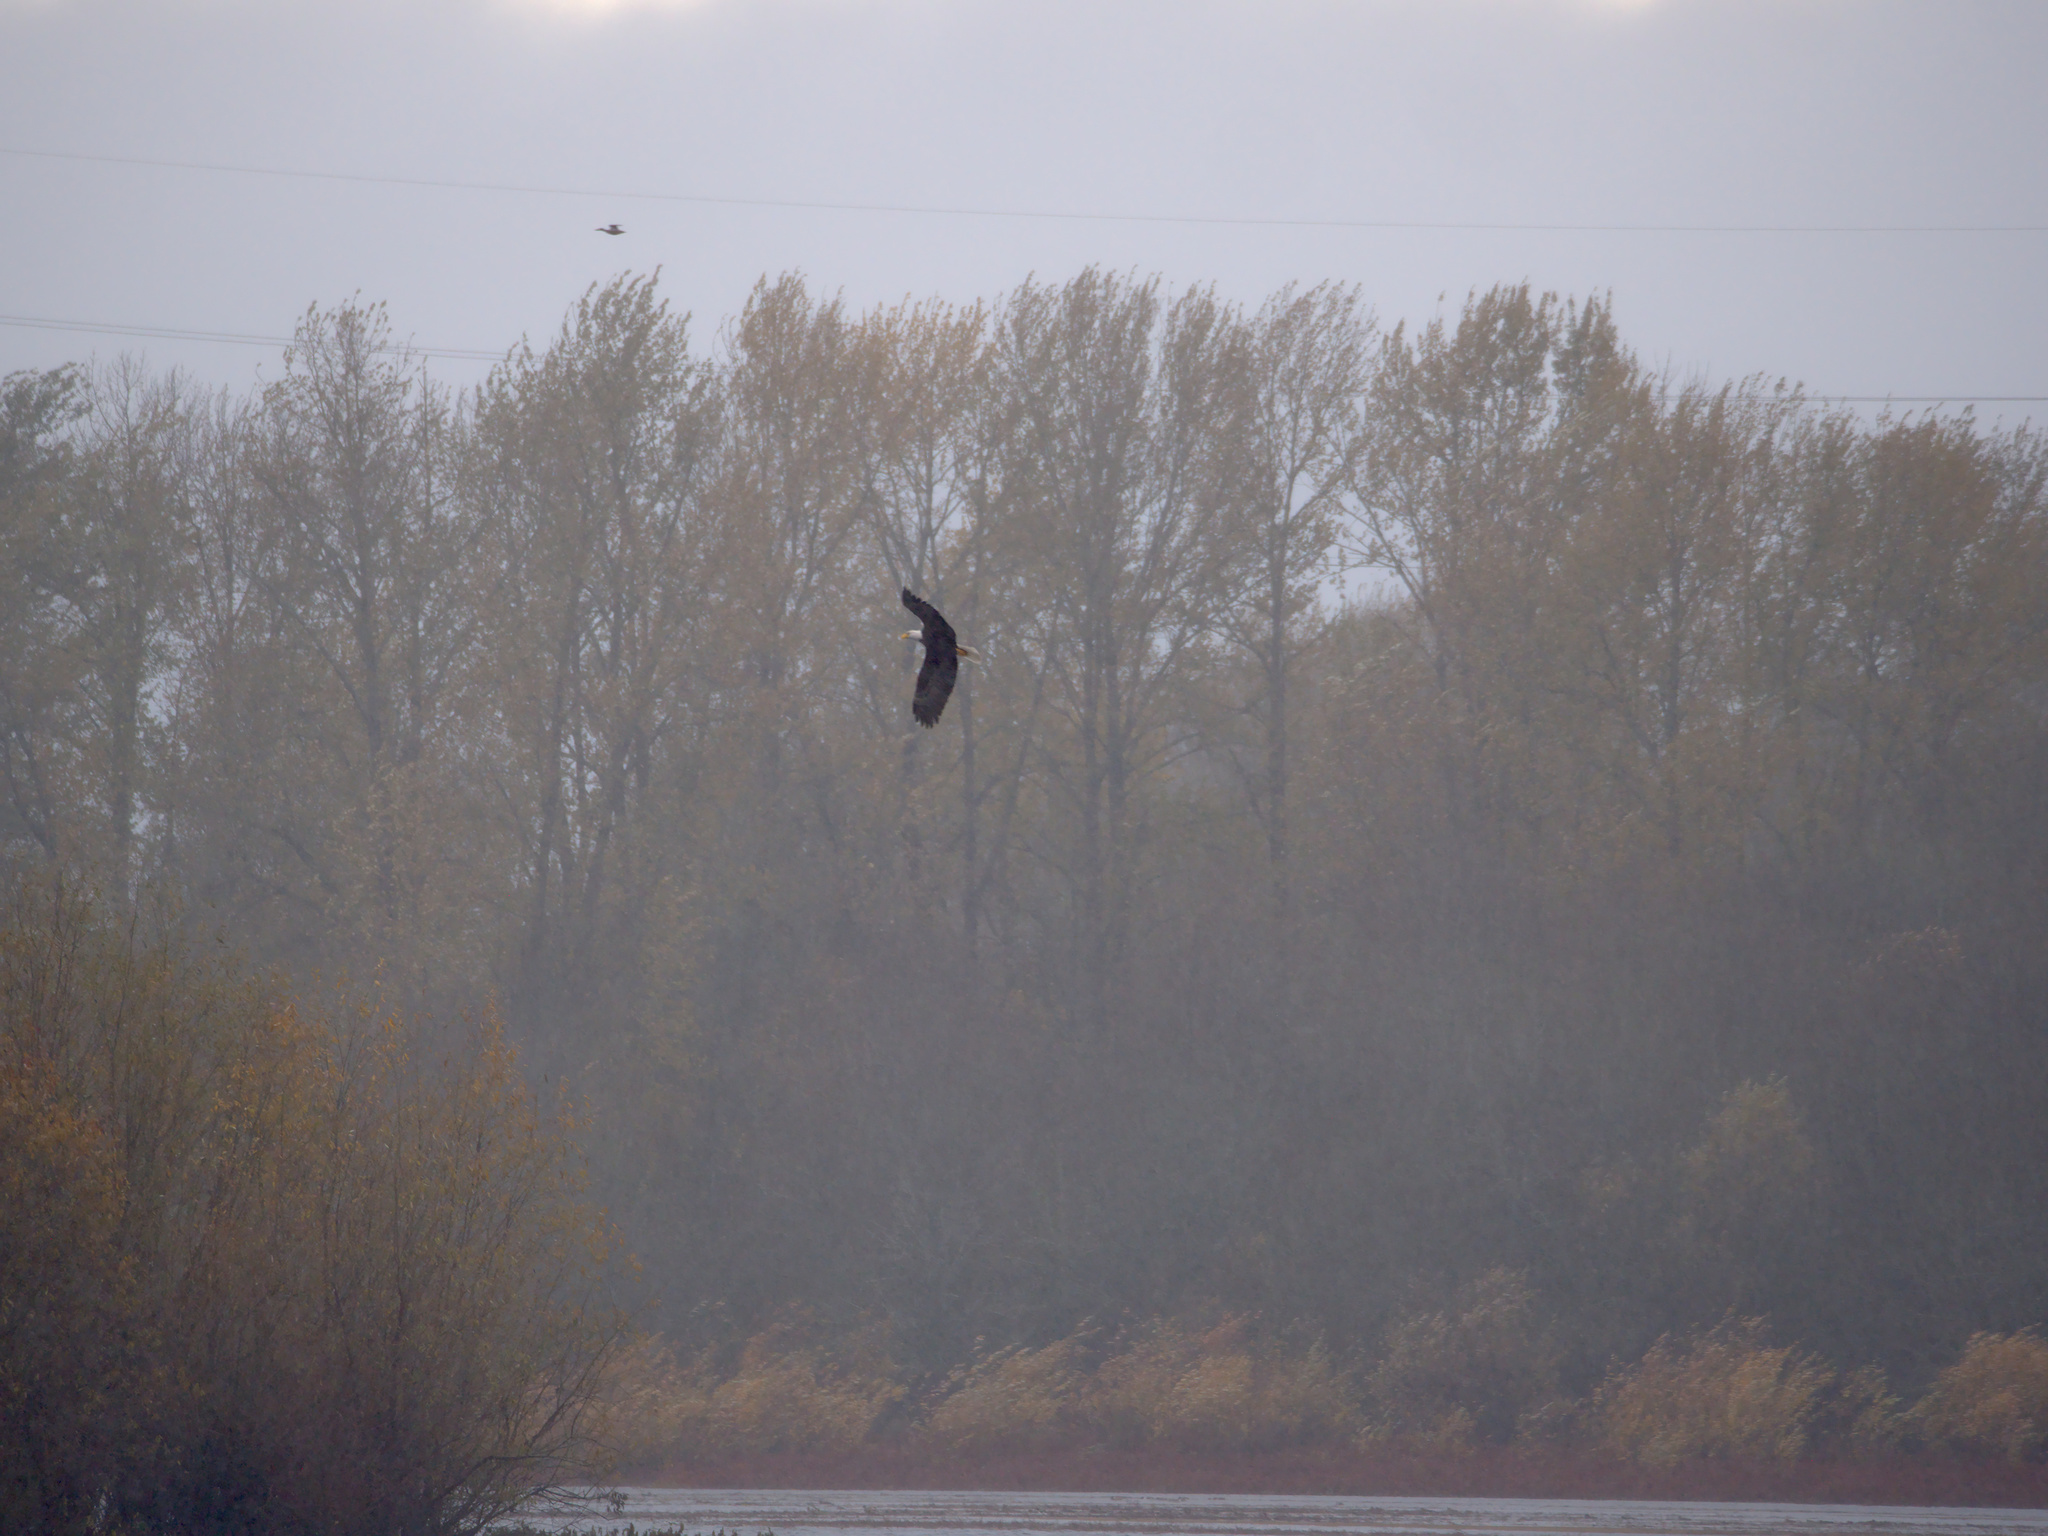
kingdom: Animalia
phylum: Chordata
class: Aves
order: Accipitriformes
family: Accipitridae
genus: Haliaeetus
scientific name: Haliaeetus leucocephalus
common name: Bald eagle
